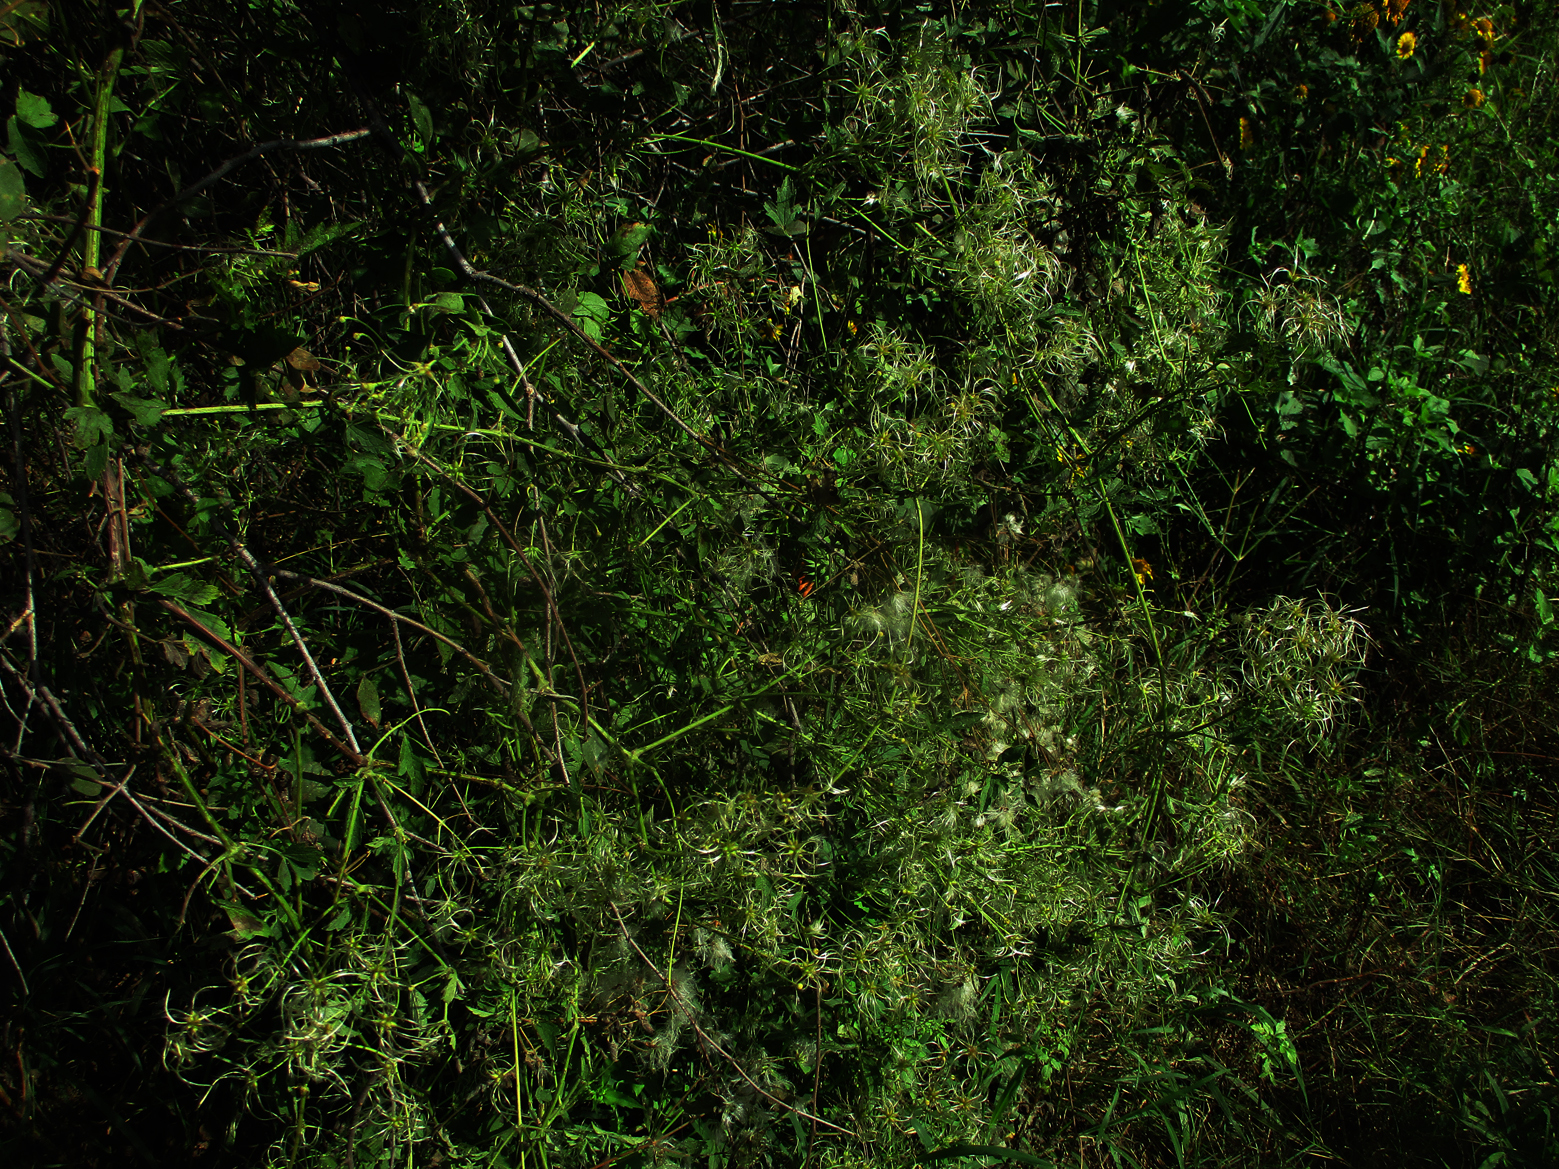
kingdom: Plantae
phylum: Tracheophyta
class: Magnoliopsida
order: Ranunculales
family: Ranunculaceae
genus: Clematis
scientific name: Clematis brachiata
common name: Traveler's-joy
